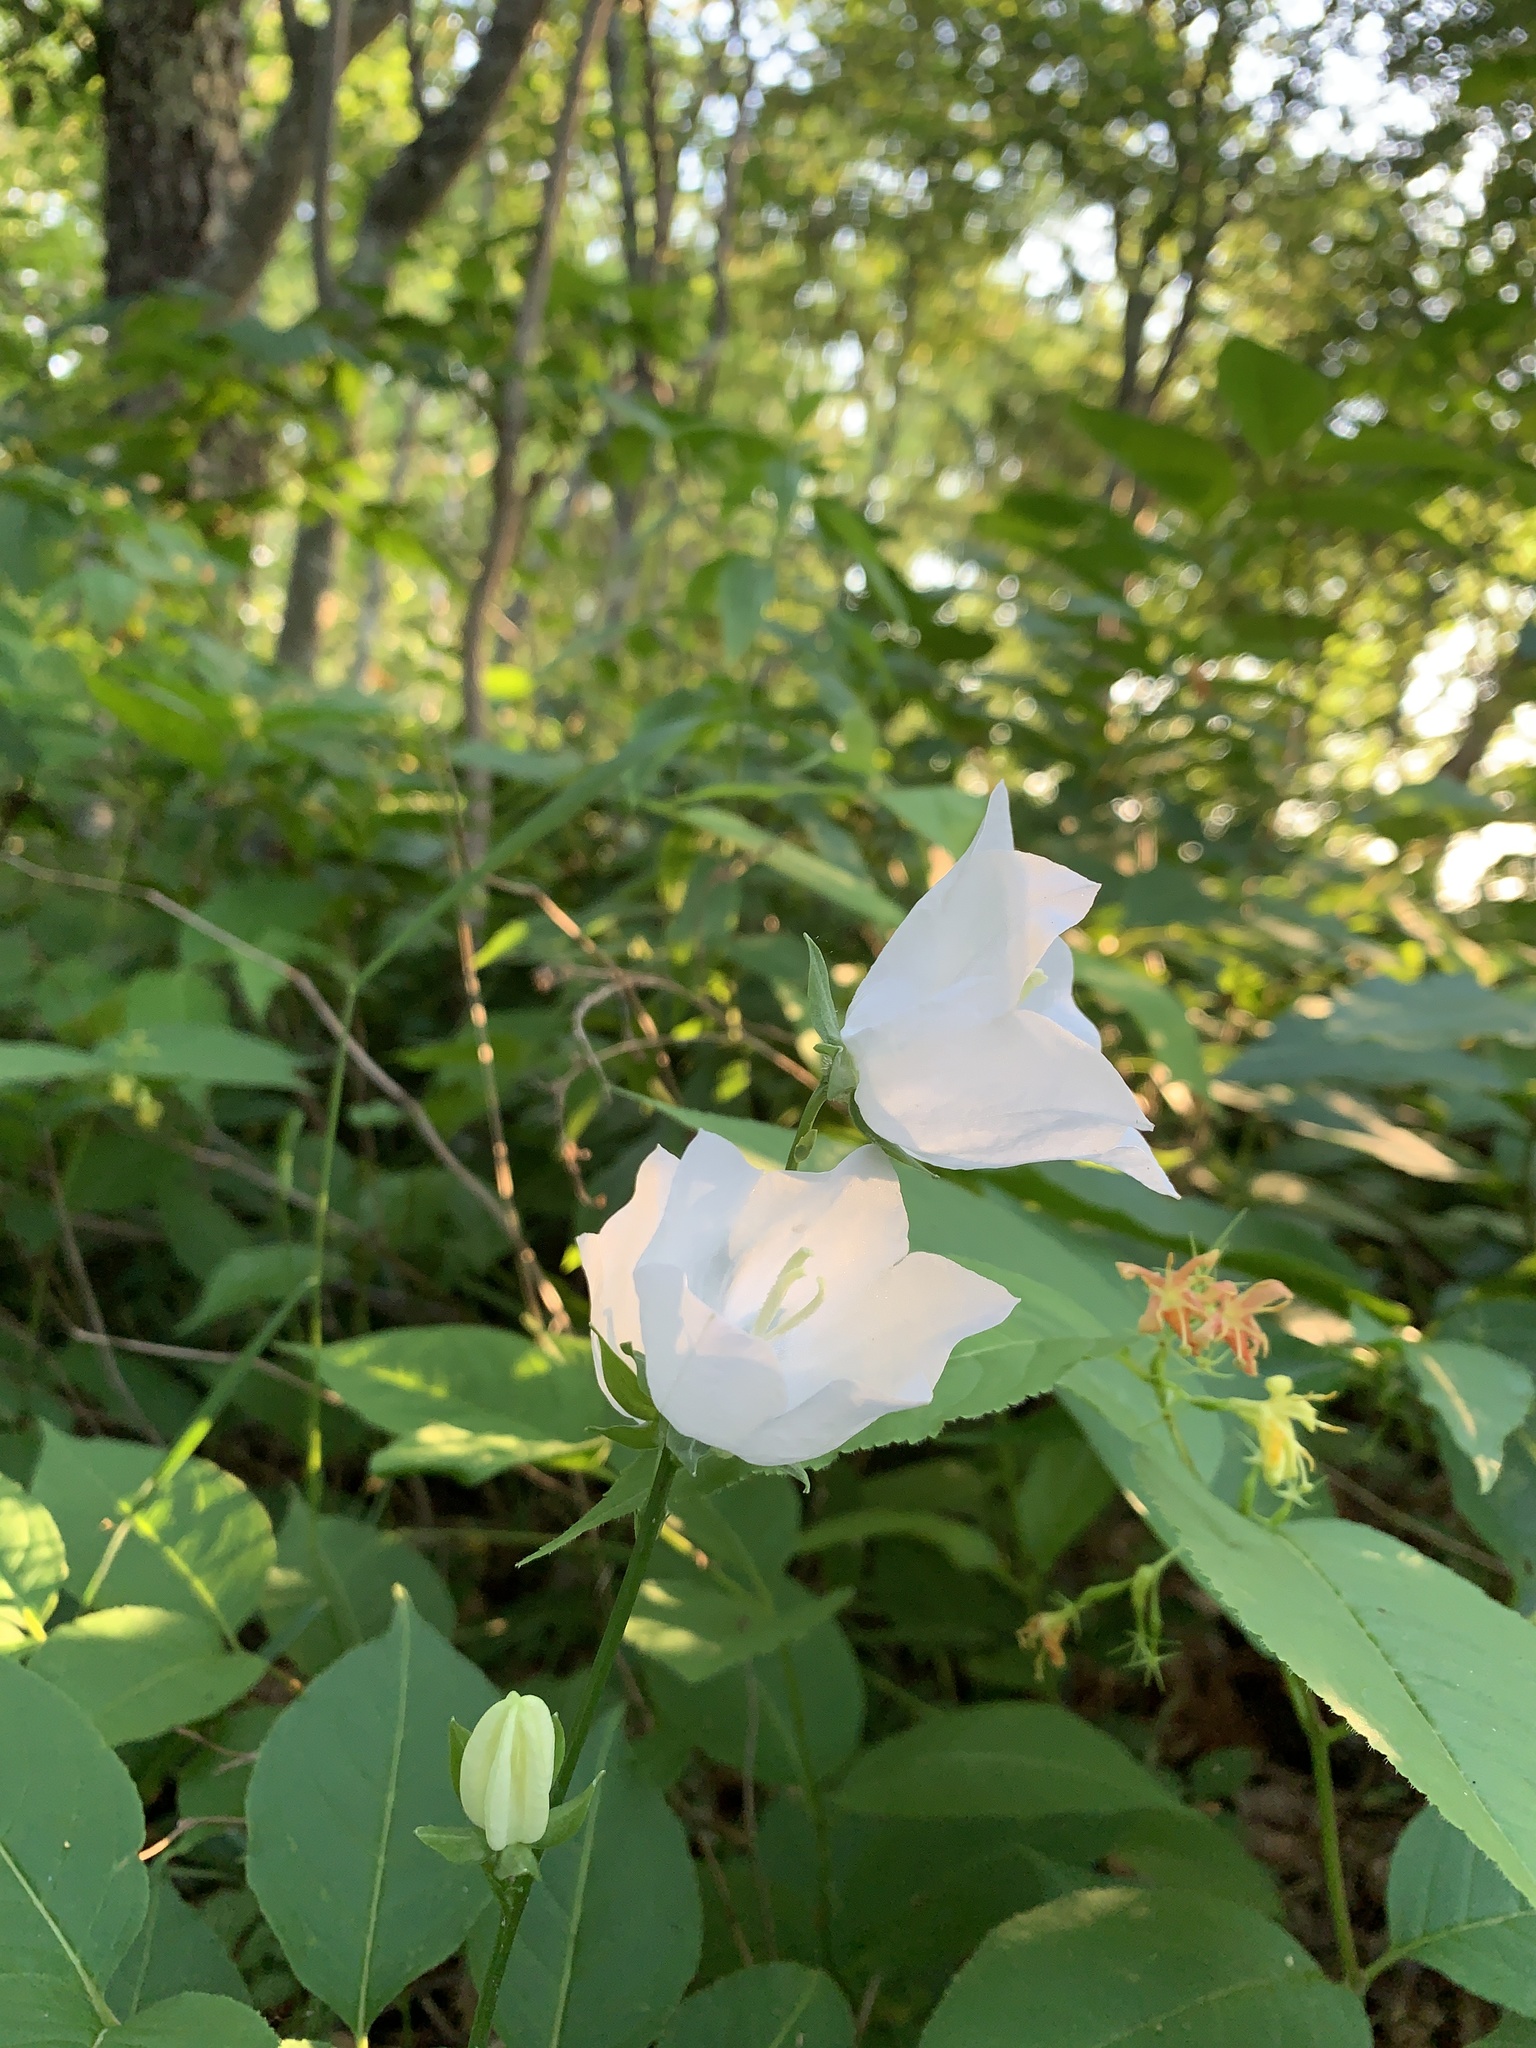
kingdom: Plantae
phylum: Tracheophyta
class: Magnoliopsida
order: Asterales
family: Campanulaceae
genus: Campanula
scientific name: Campanula persicifolia
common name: Peach-leaved bellflower
